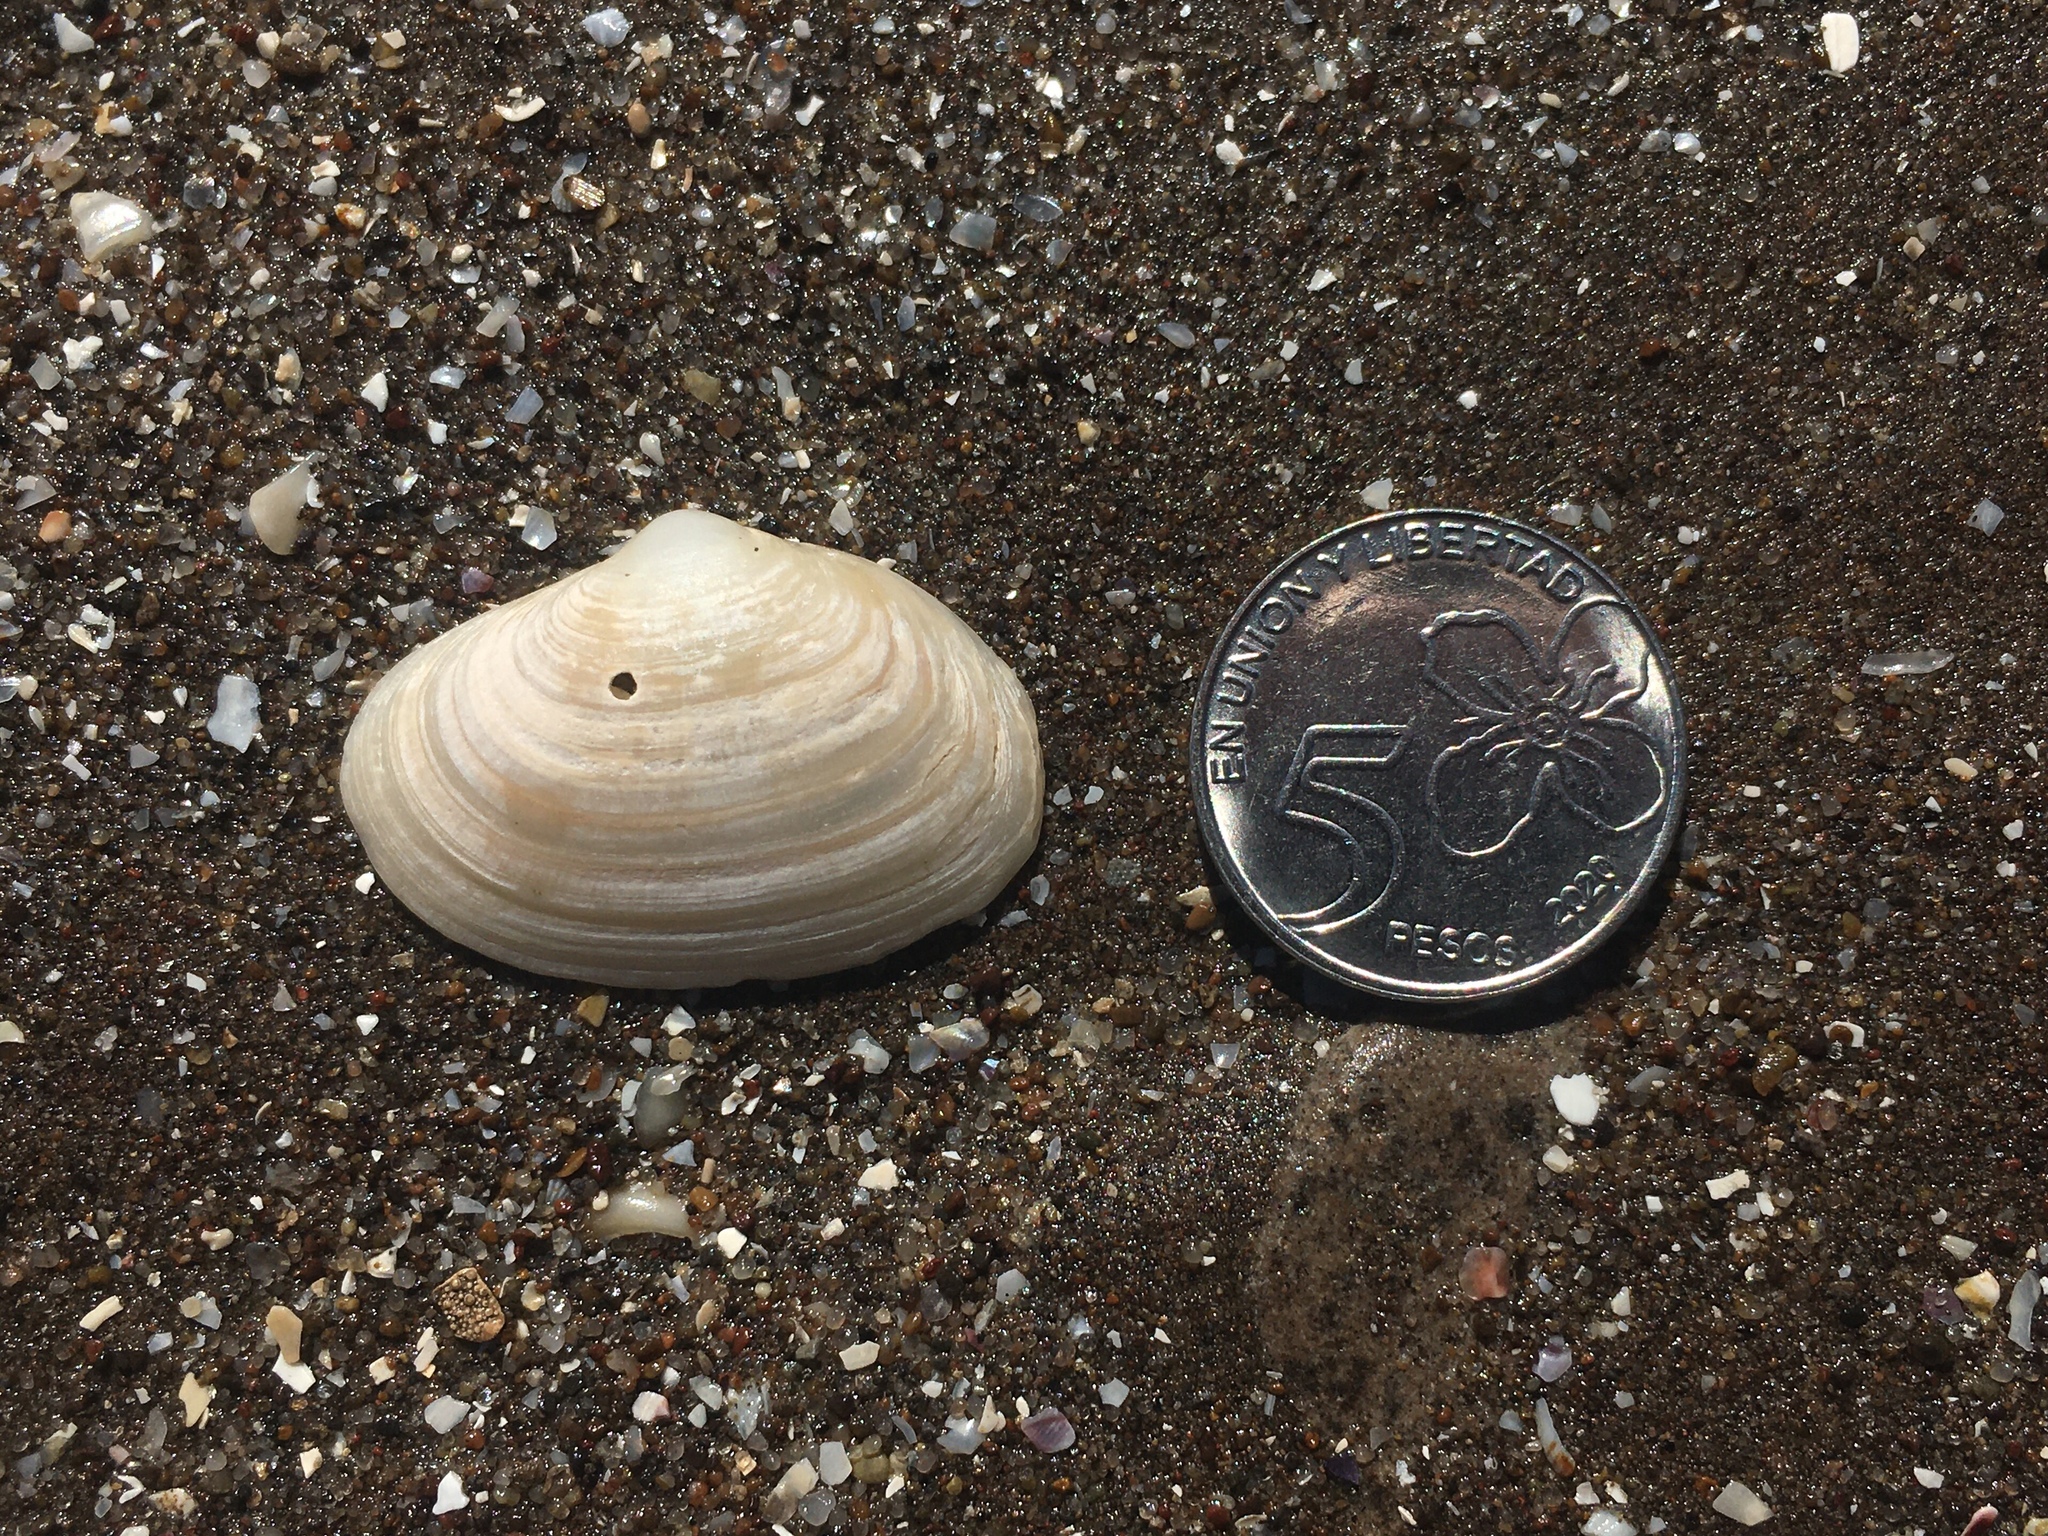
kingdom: Animalia
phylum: Mollusca
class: Bivalvia
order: Venerida
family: Mactridae
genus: Mactra
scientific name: Mactra guidoi
